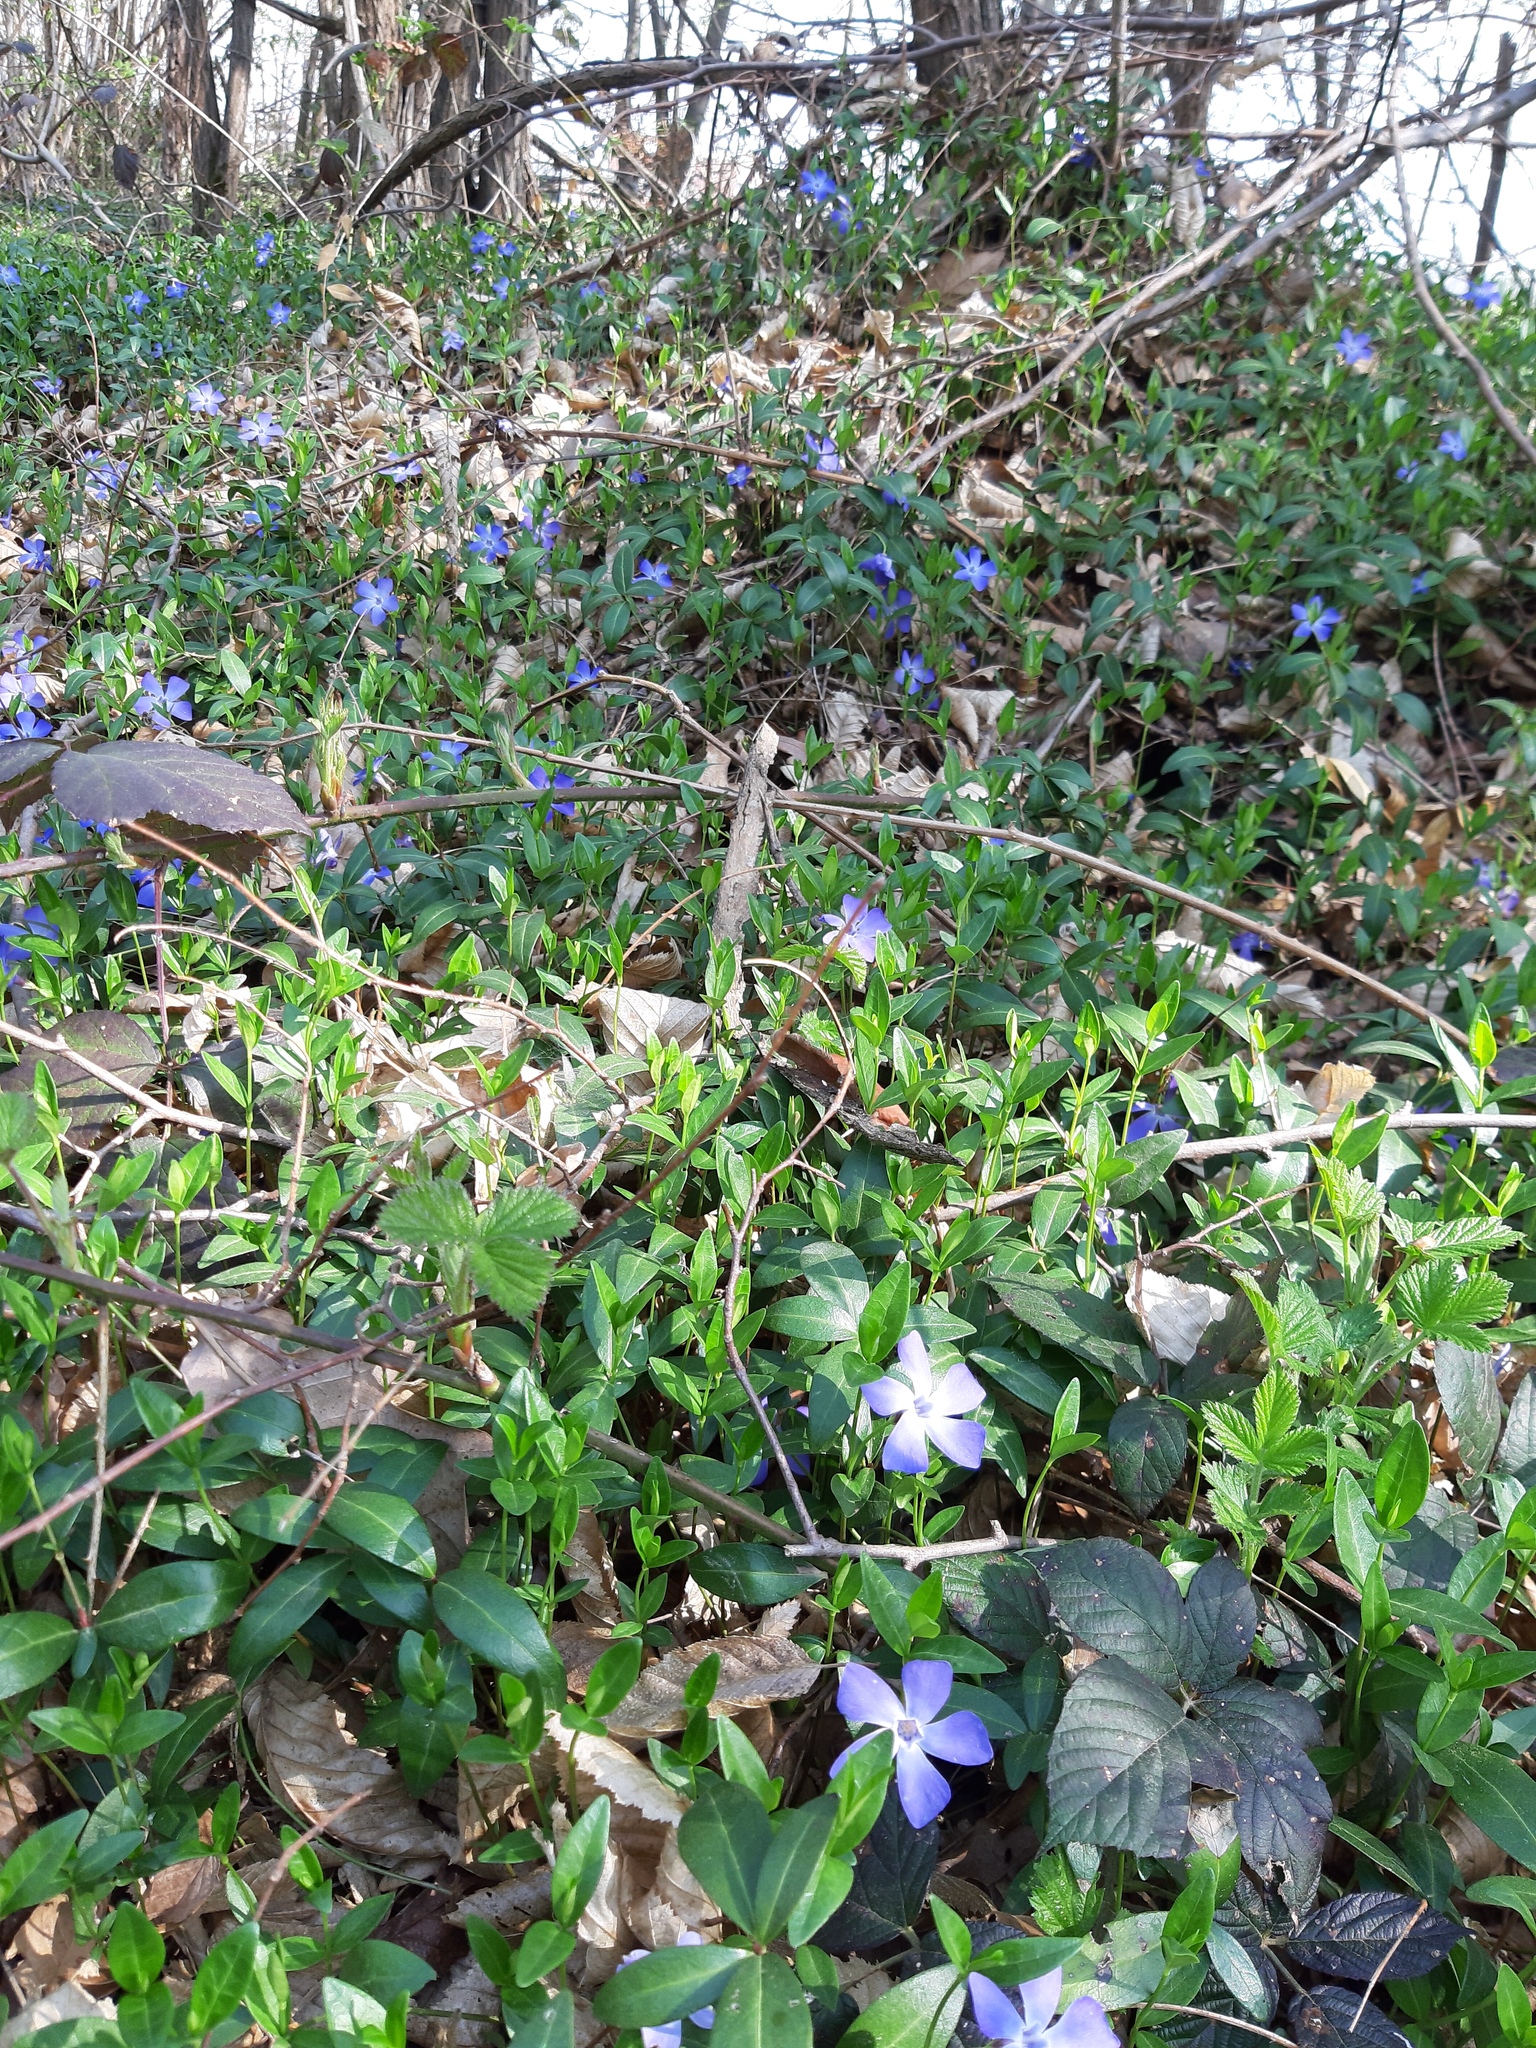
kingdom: Plantae
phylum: Tracheophyta
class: Magnoliopsida
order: Gentianales
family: Apocynaceae
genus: Vinca
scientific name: Vinca minor
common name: Lesser periwinkle
